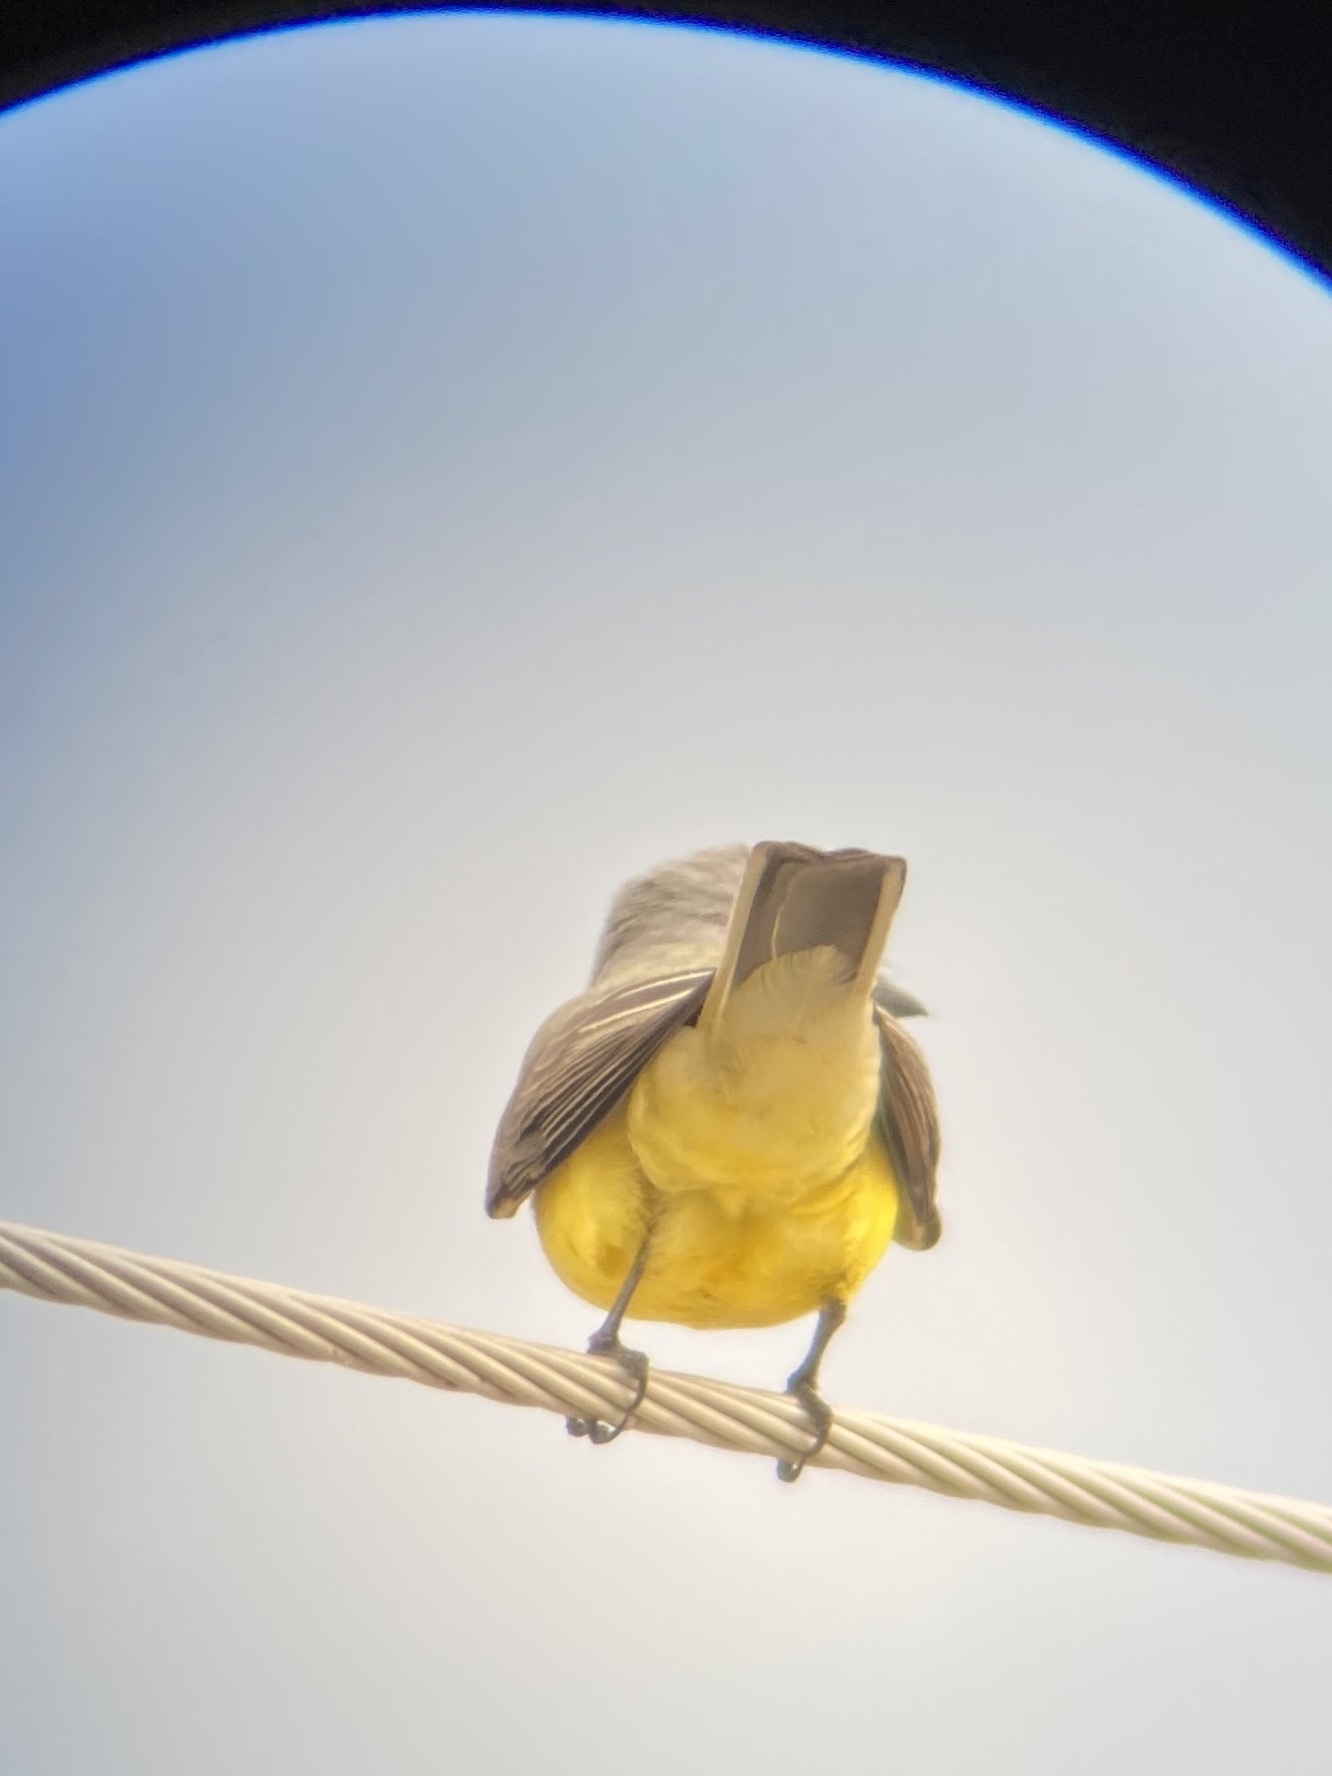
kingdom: Animalia
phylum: Chordata
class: Aves
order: Passeriformes
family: Tyrannidae
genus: Tyrannus
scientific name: Tyrannus verticalis
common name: Western kingbird
